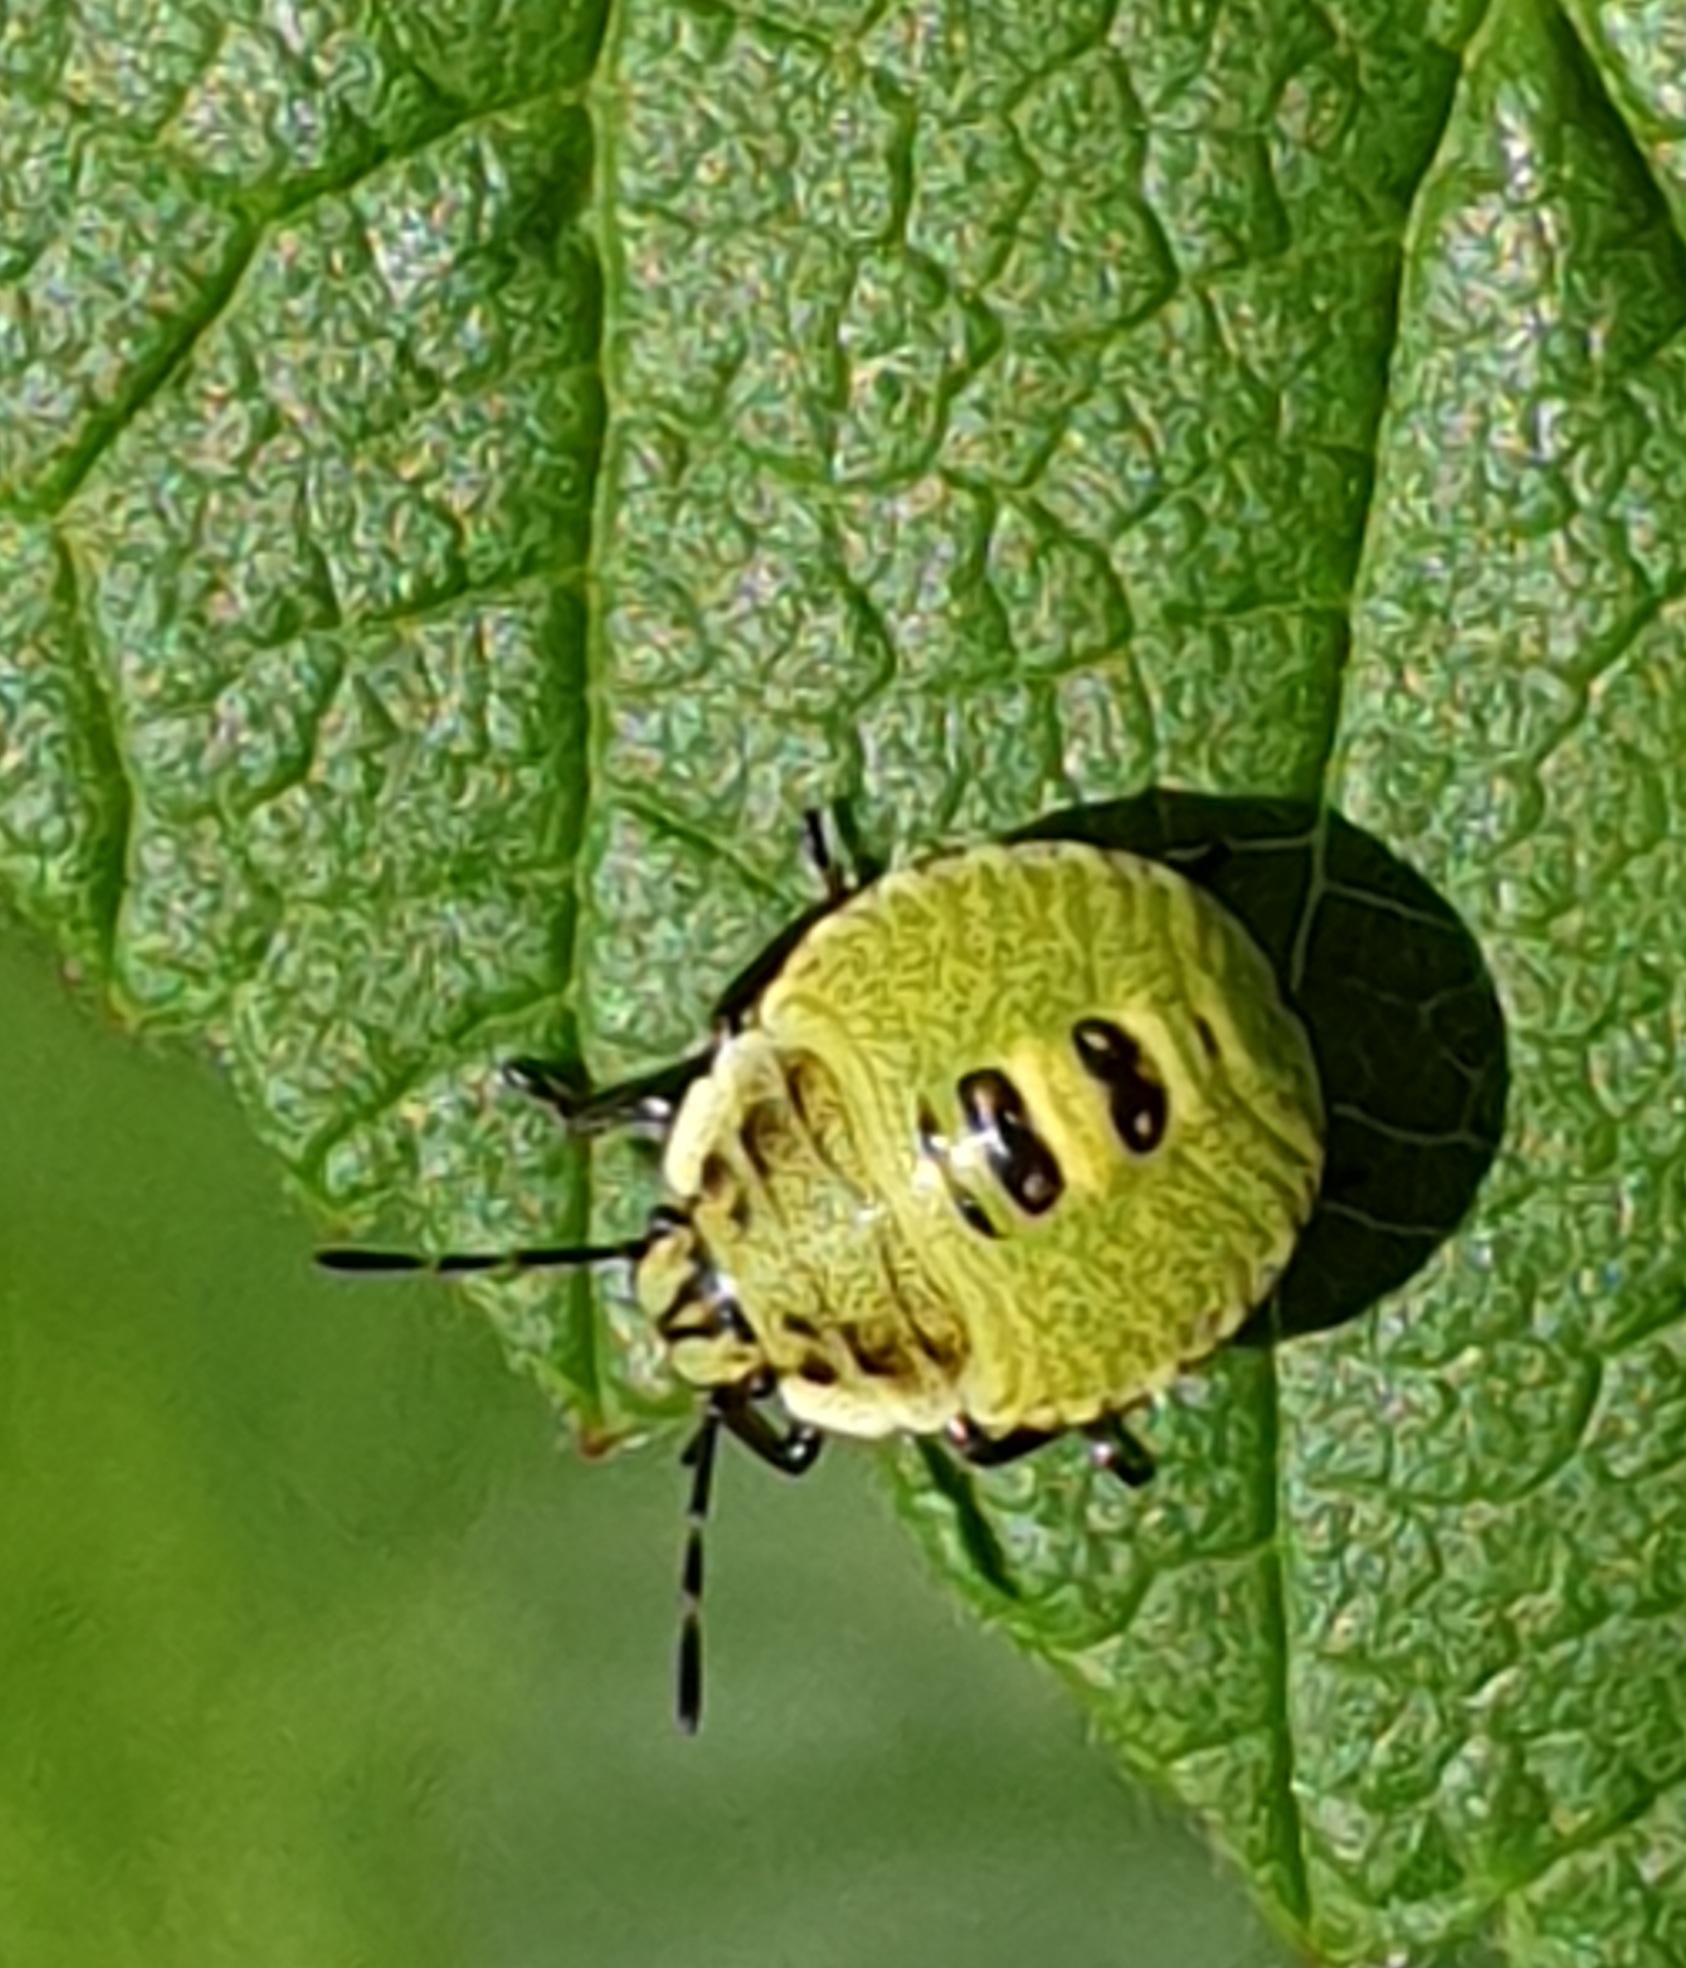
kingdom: Animalia
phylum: Arthropoda
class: Insecta
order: Hemiptera
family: Pentatomidae
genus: Palomena
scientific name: Palomena prasina
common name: Green shieldbug
